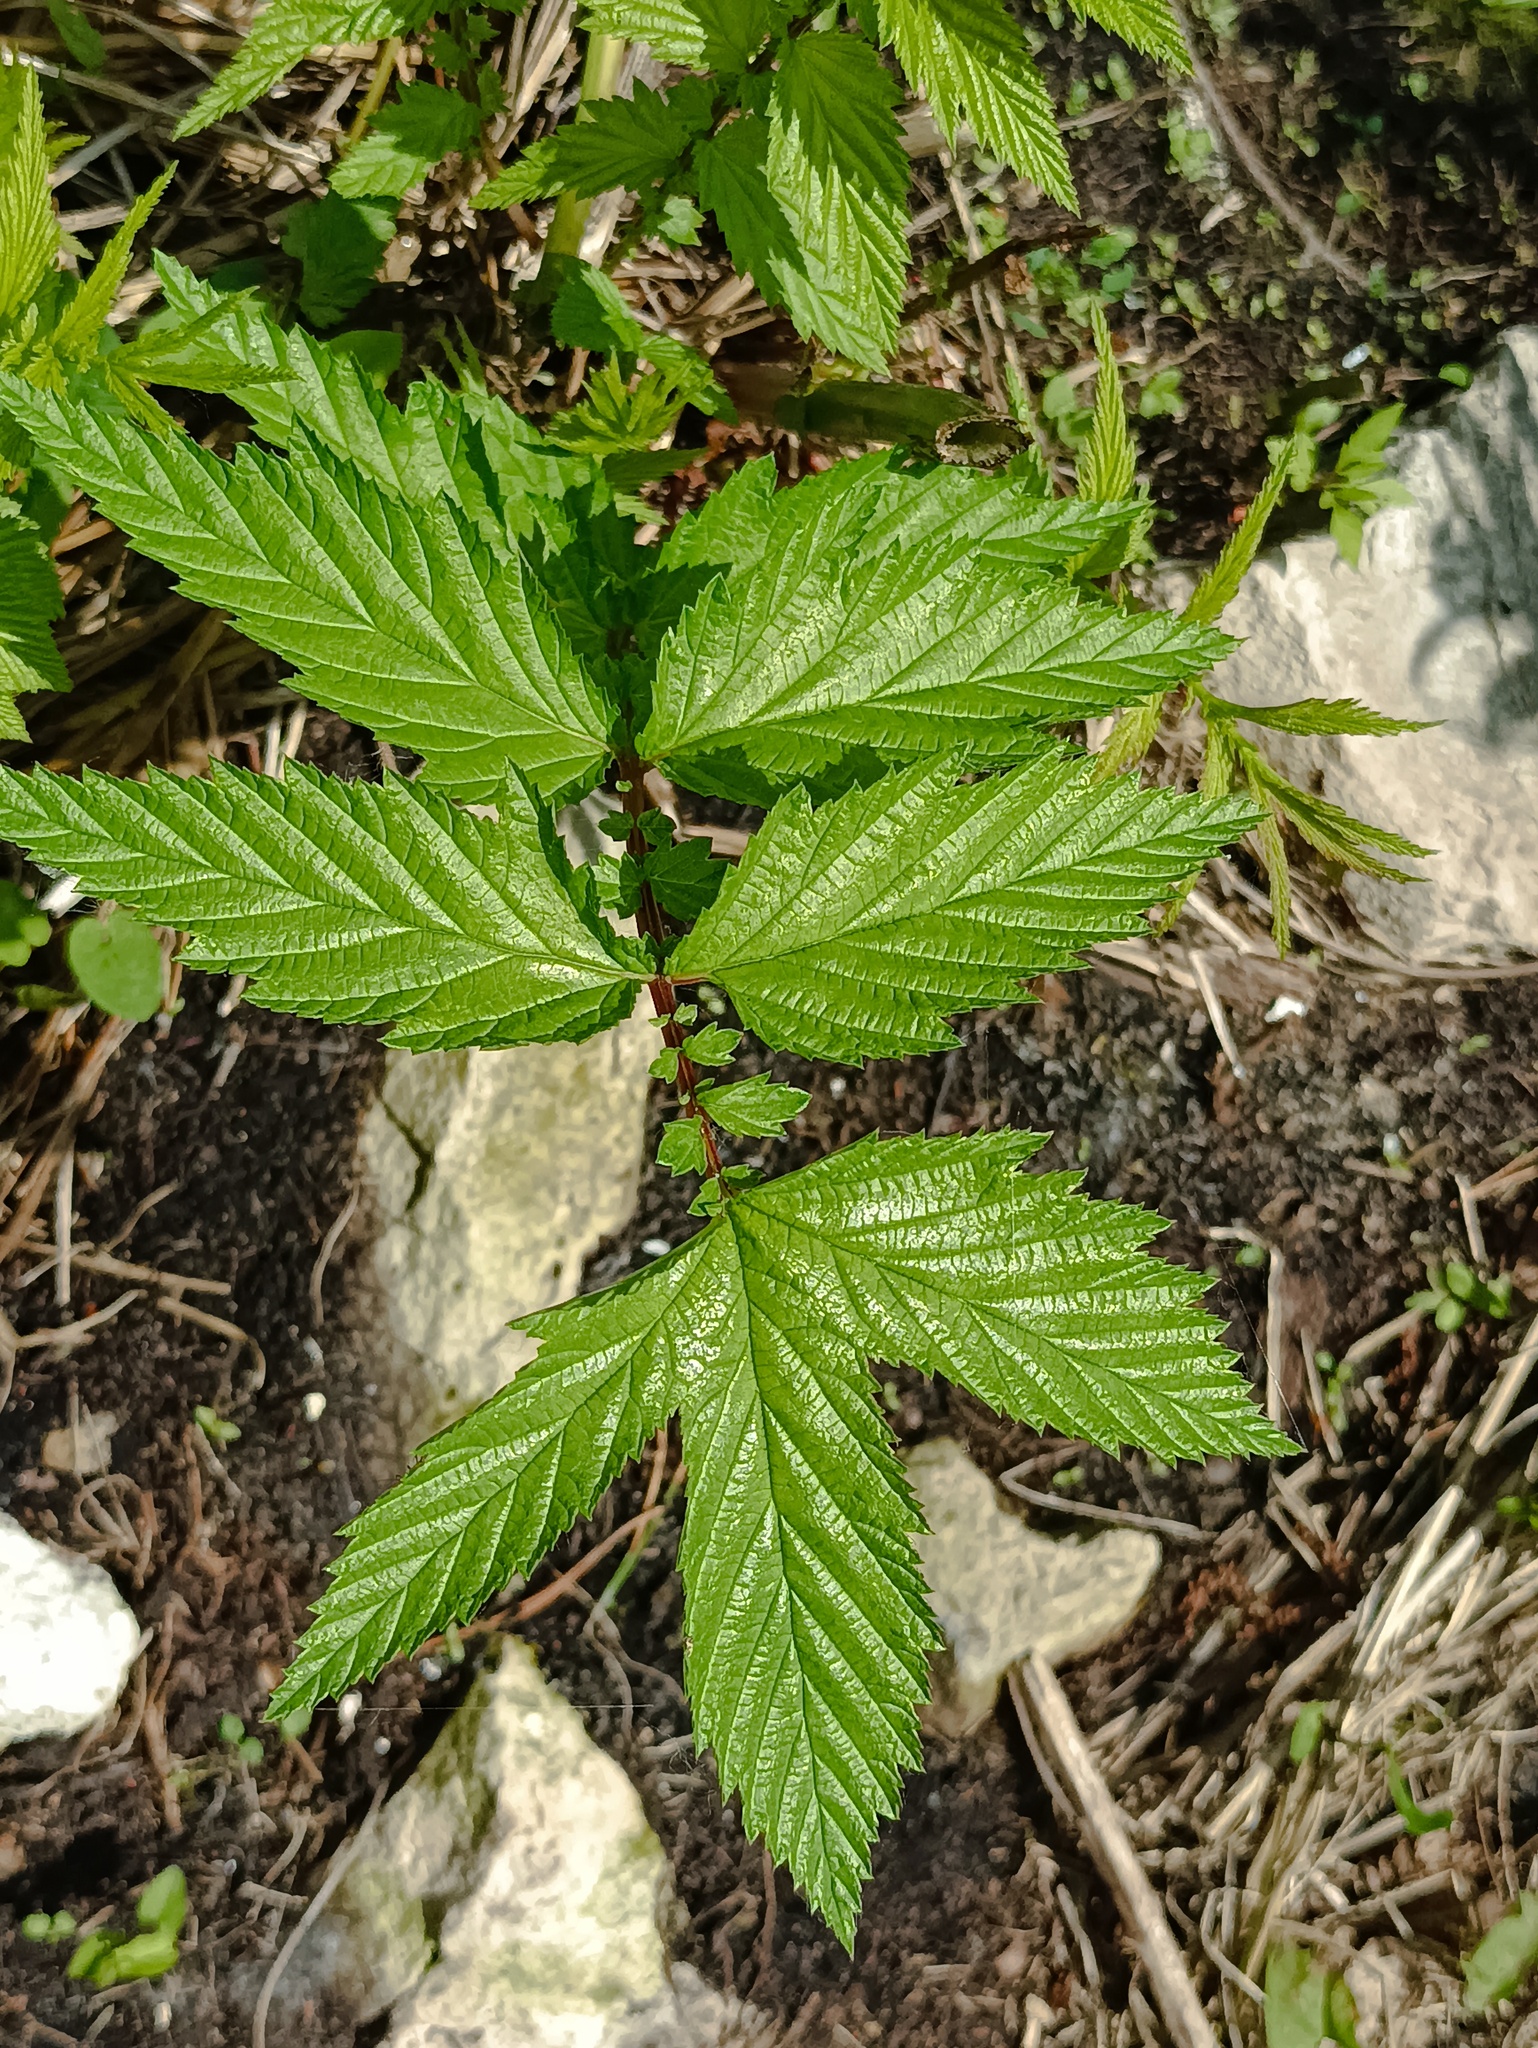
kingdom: Plantae
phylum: Tracheophyta
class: Magnoliopsida
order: Rosales
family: Rosaceae
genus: Filipendula
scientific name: Filipendula ulmaria
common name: Meadowsweet
